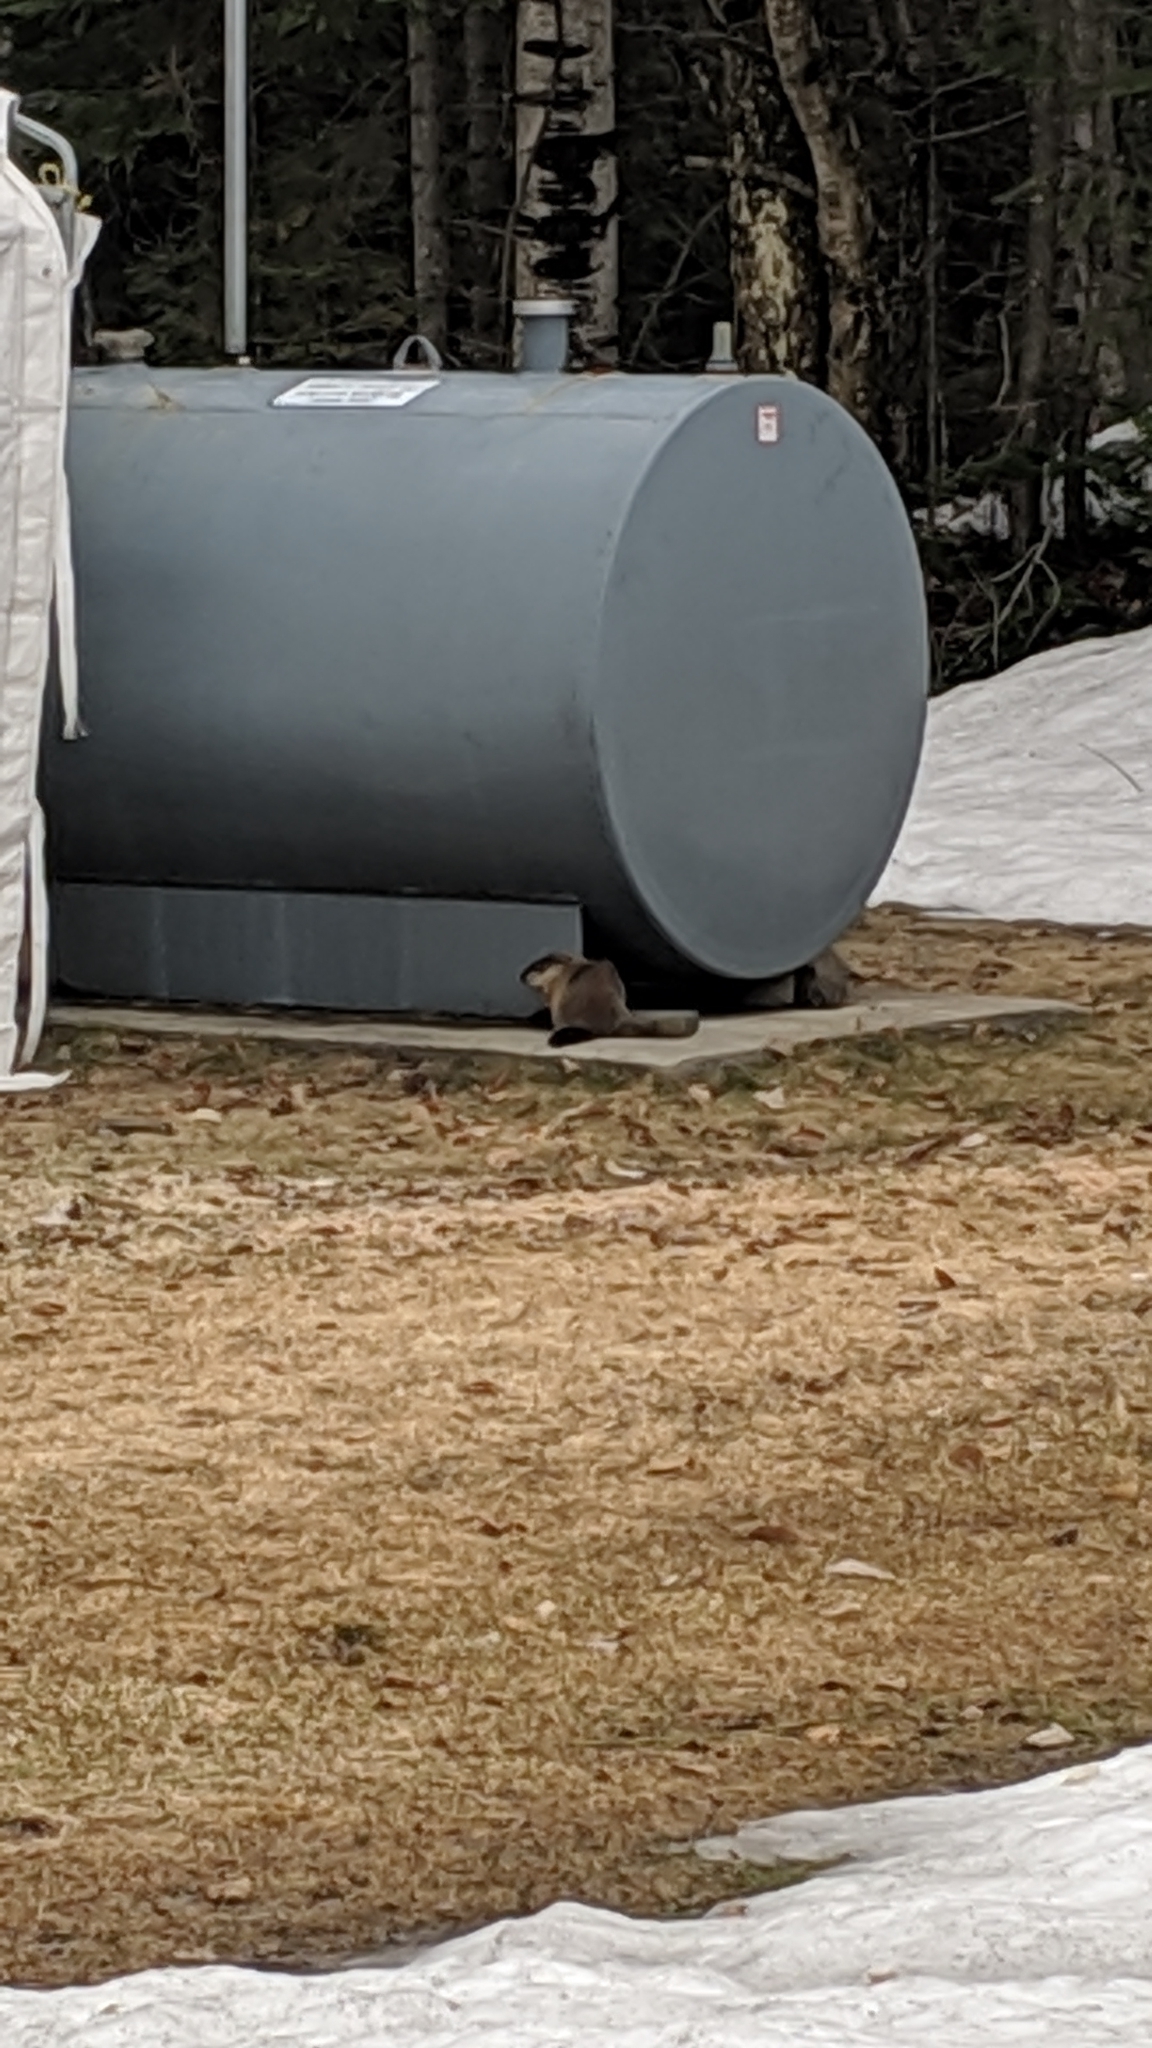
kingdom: Animalia
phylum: Chordata
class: Mammalia
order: Rodentia
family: Sciuridae
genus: Marmota
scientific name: Marmota monax
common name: Groundhog
